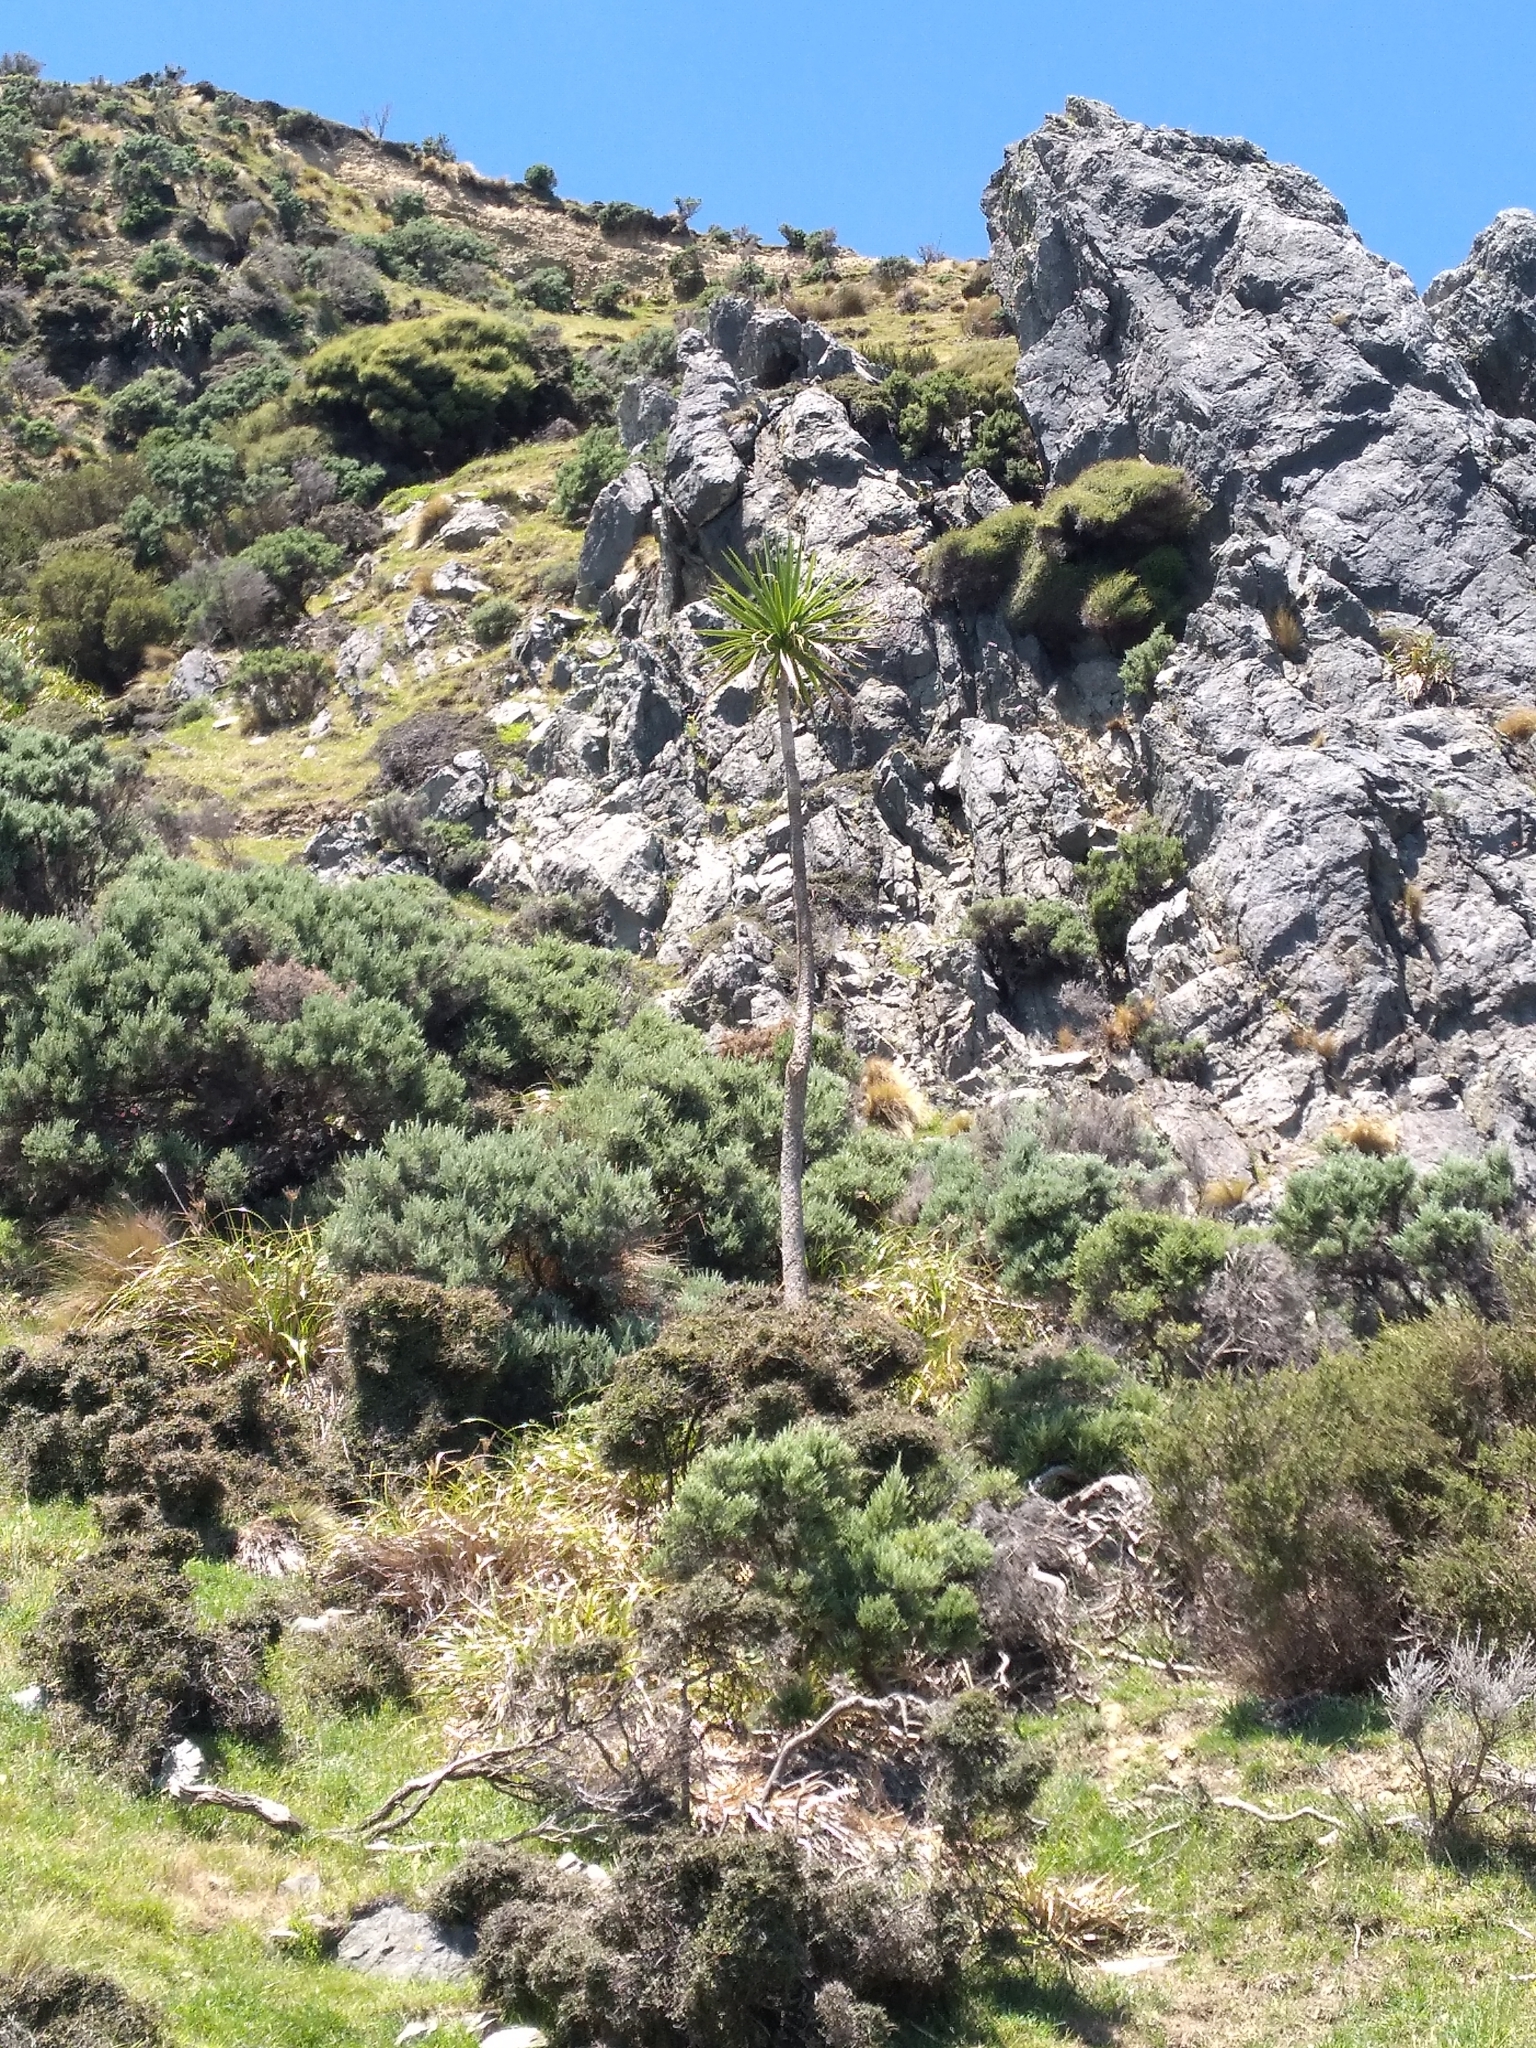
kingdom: Plantae
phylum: Tracheophyta
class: Liliopsida
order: Asparagales
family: Asparagaceae
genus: Cordyline
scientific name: Cordyline australis
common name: Cabbage-palm
